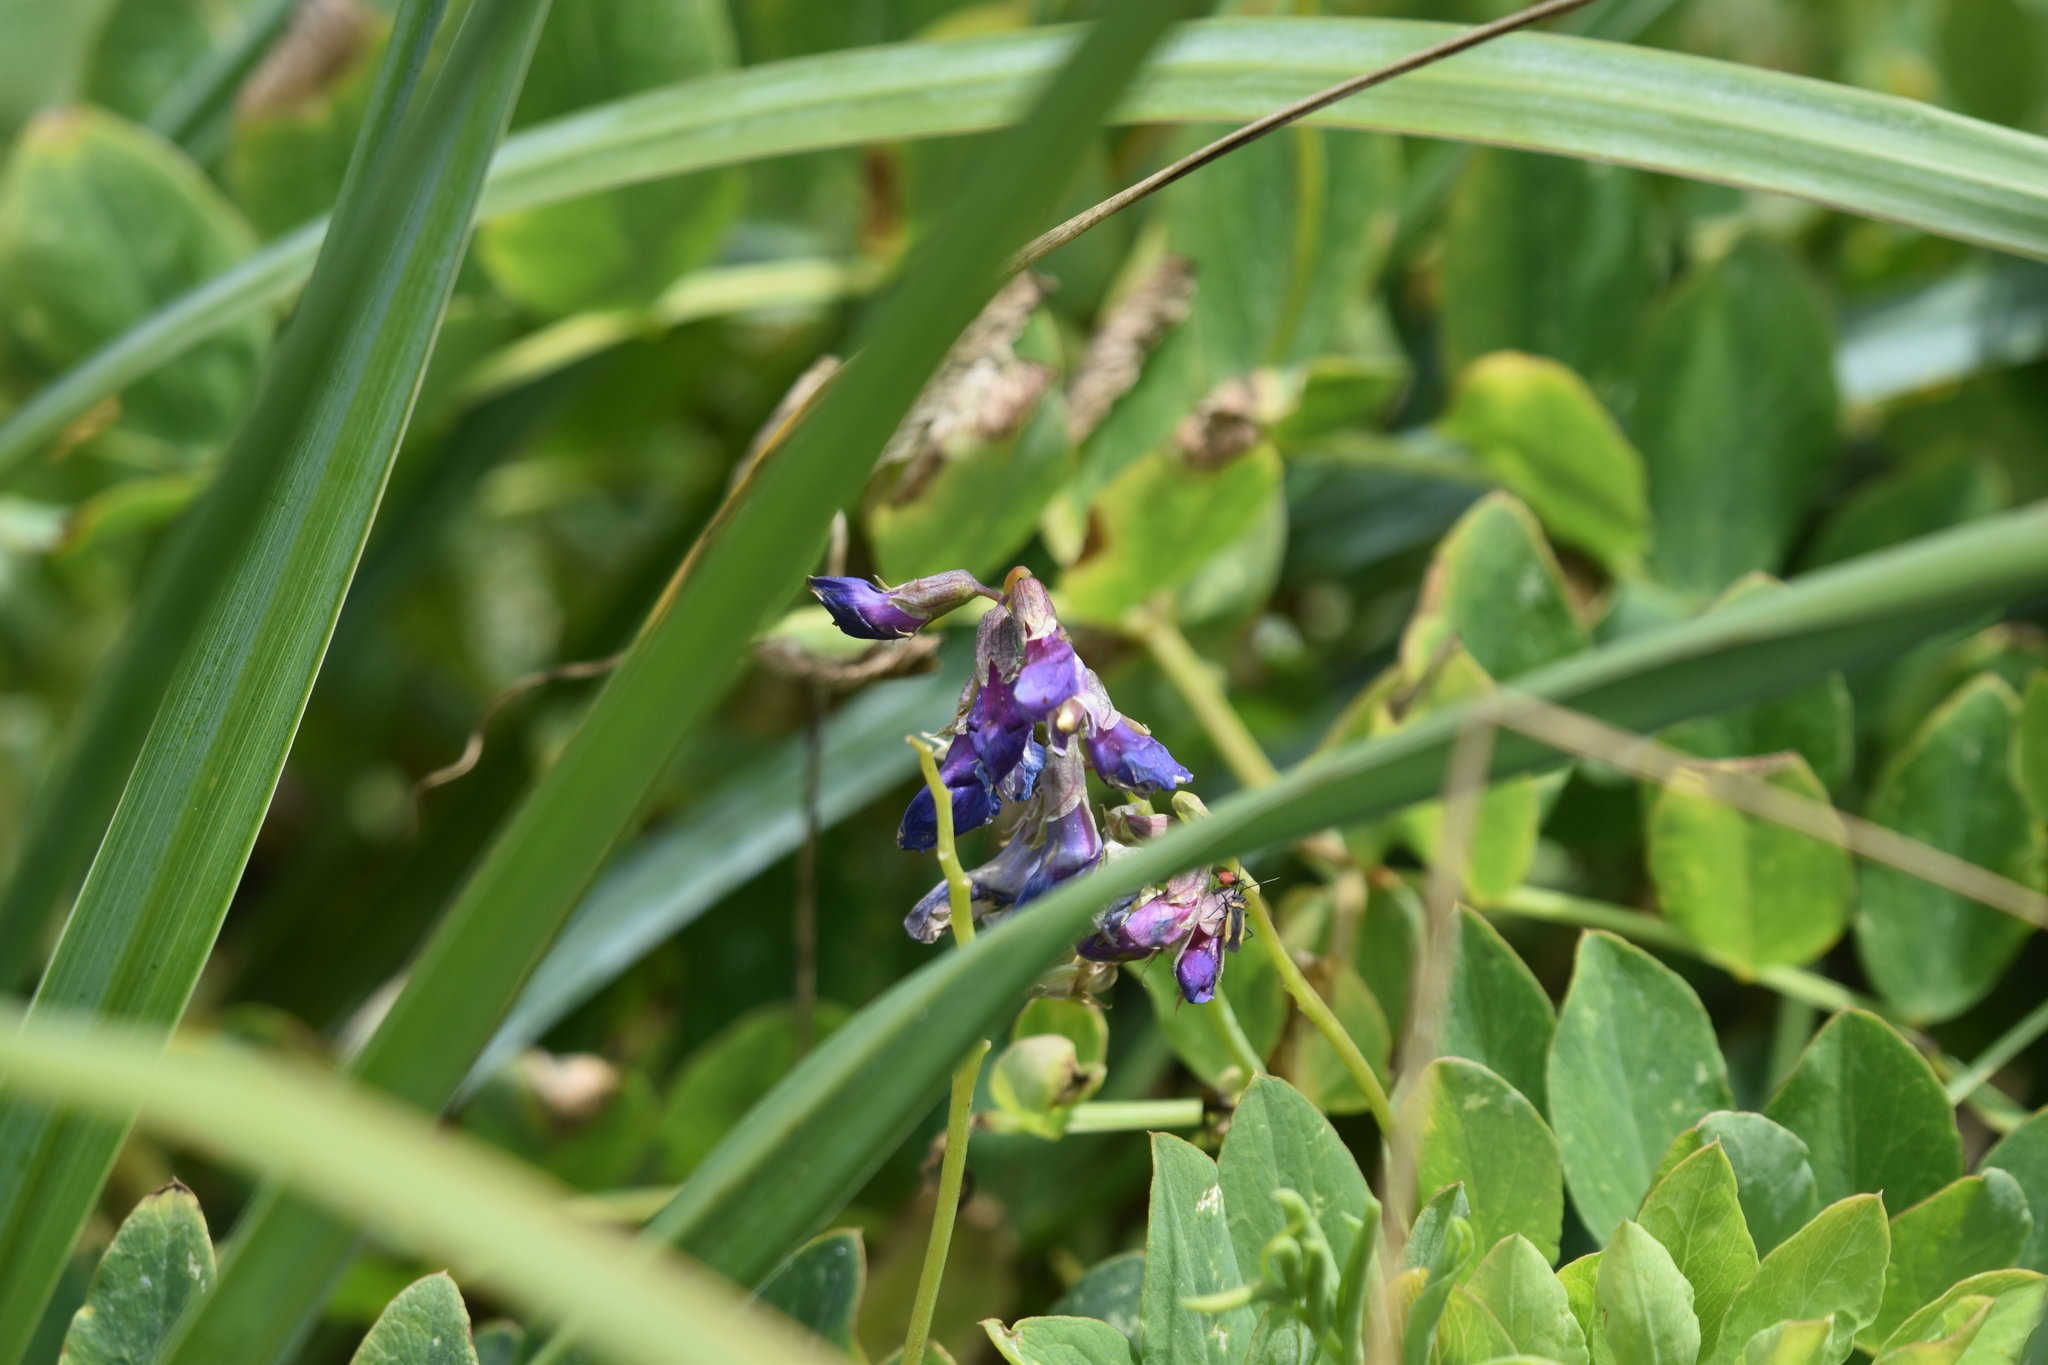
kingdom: Plantae
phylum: Tracheophyta
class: Magnoliopsida
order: Fabales
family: Fabaceae
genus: Lathyrus
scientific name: Lathyrus japonicus
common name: Sea pea
